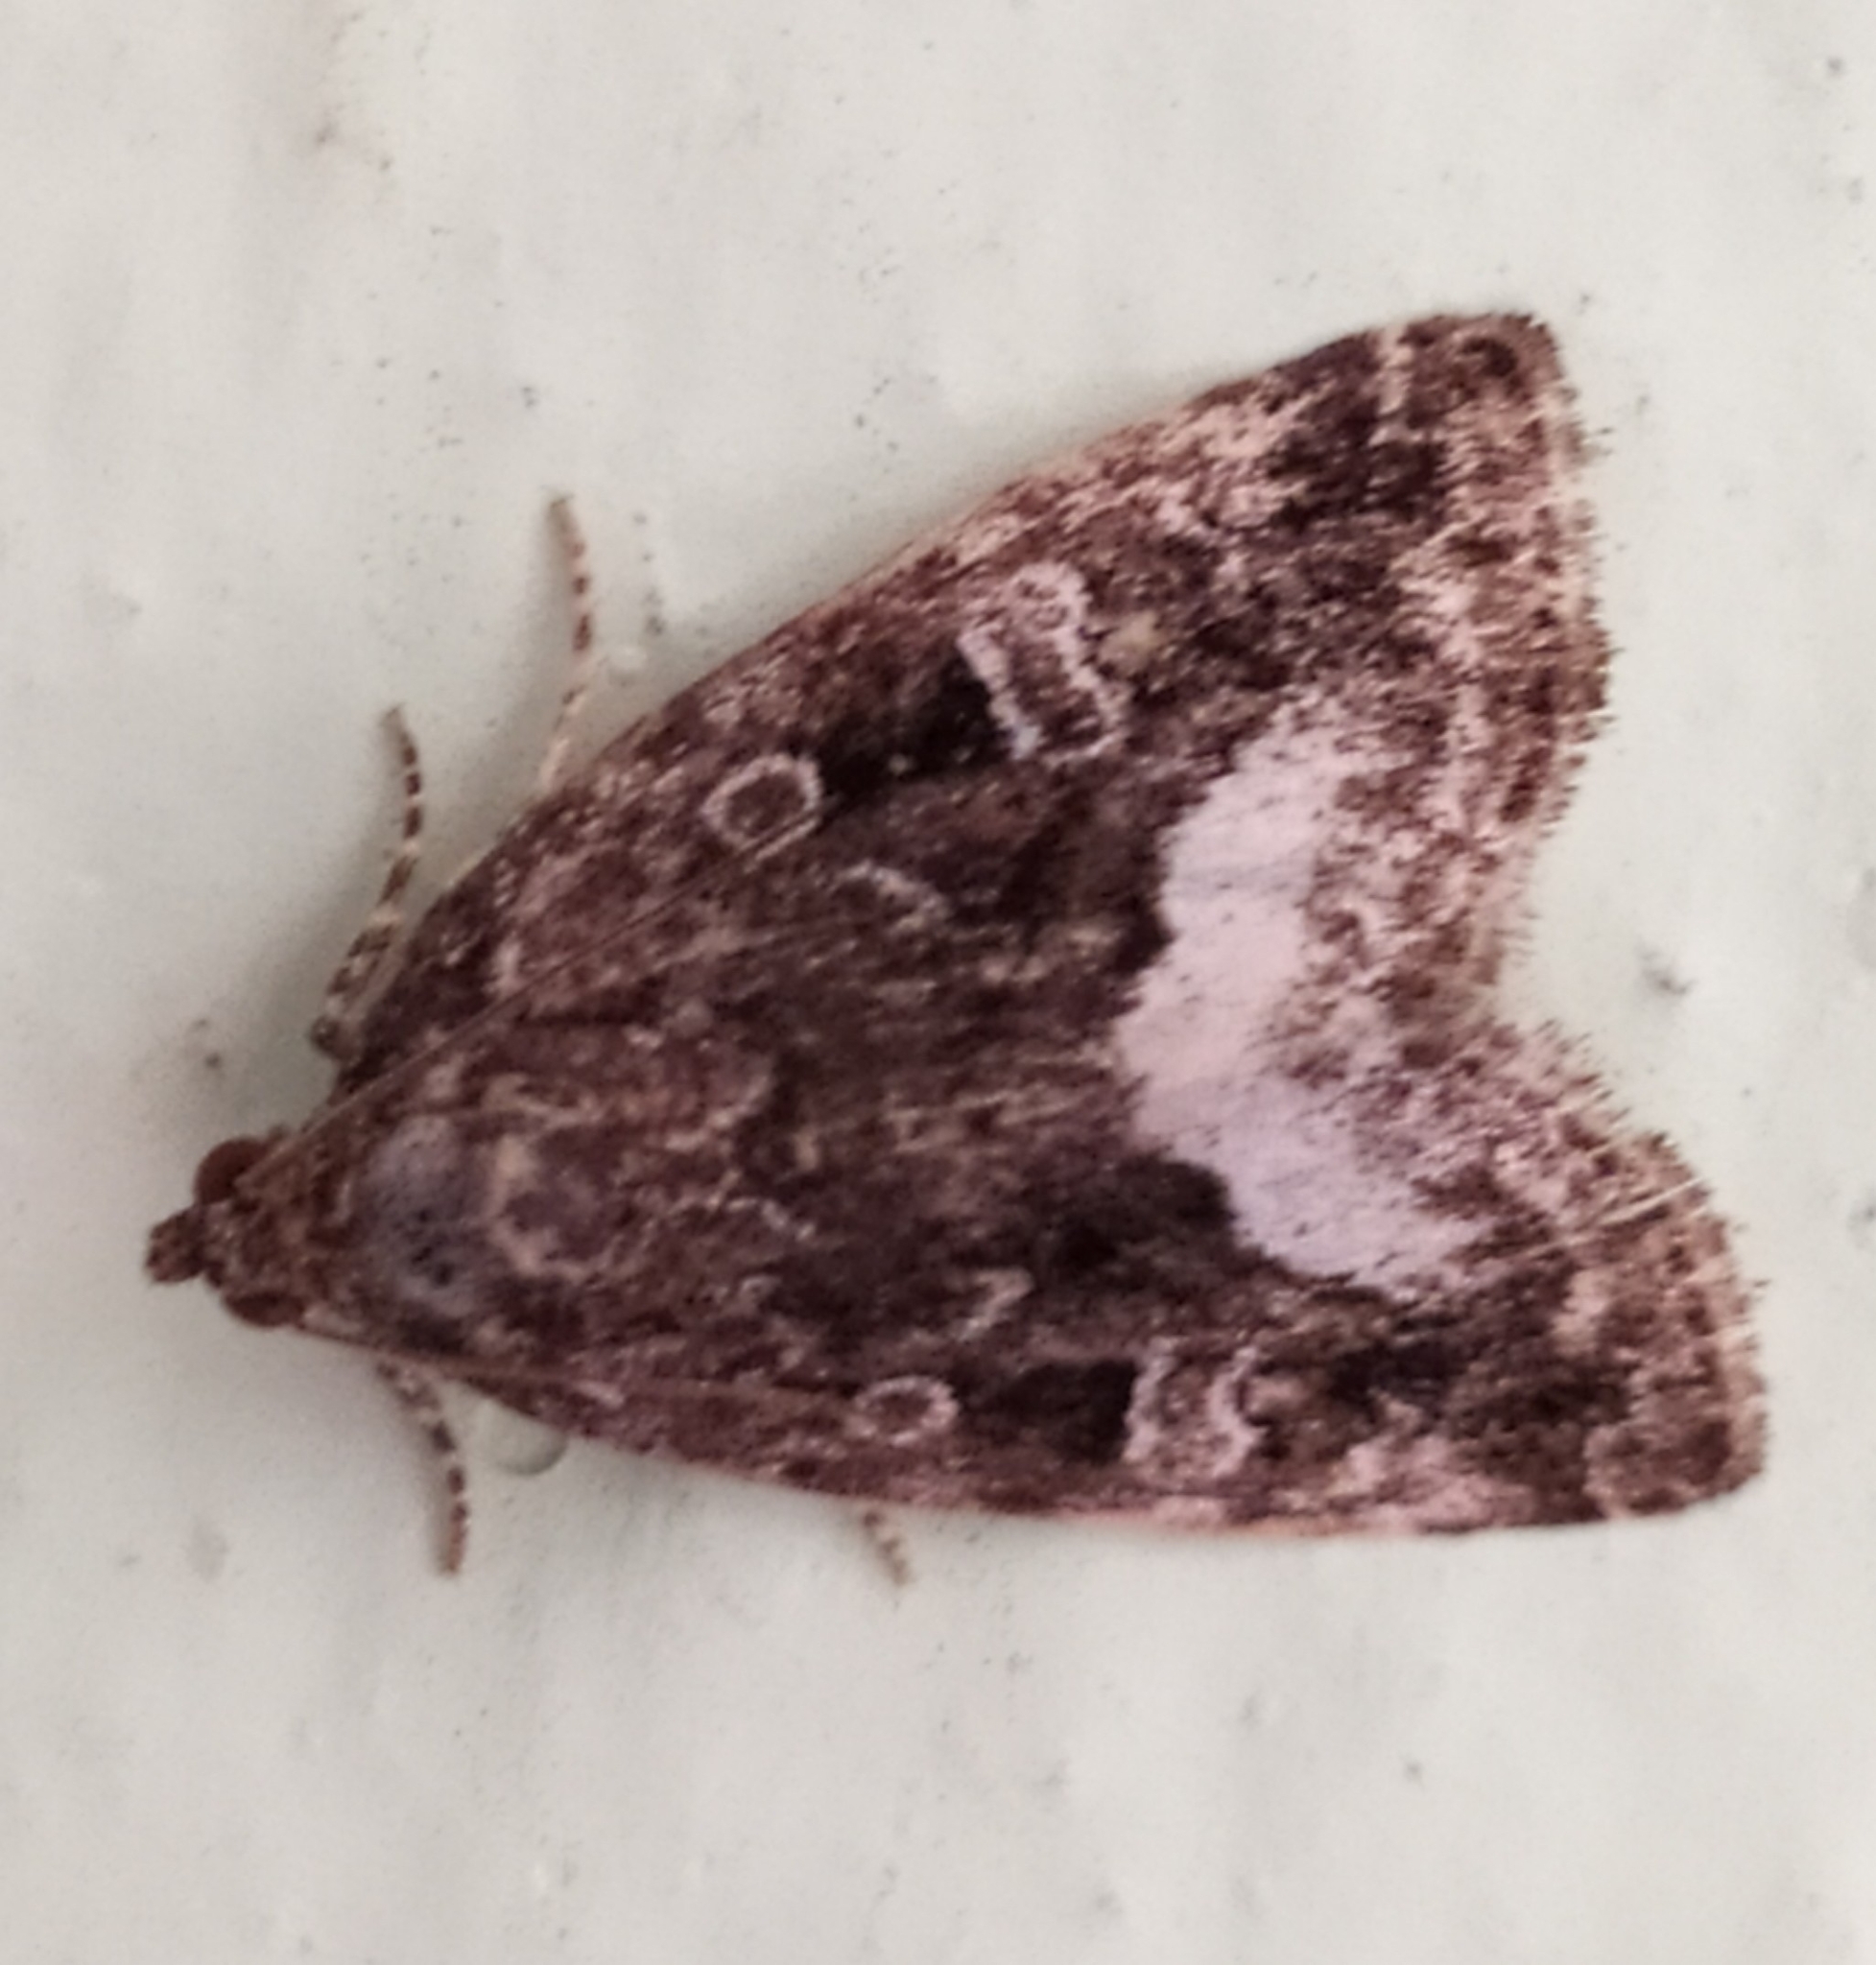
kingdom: Animalia
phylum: Arthropoda
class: Insecta
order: Lepidoptera
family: Noctuidae
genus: Deltote
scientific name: Deltote pygarga
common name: Marbled white spot
